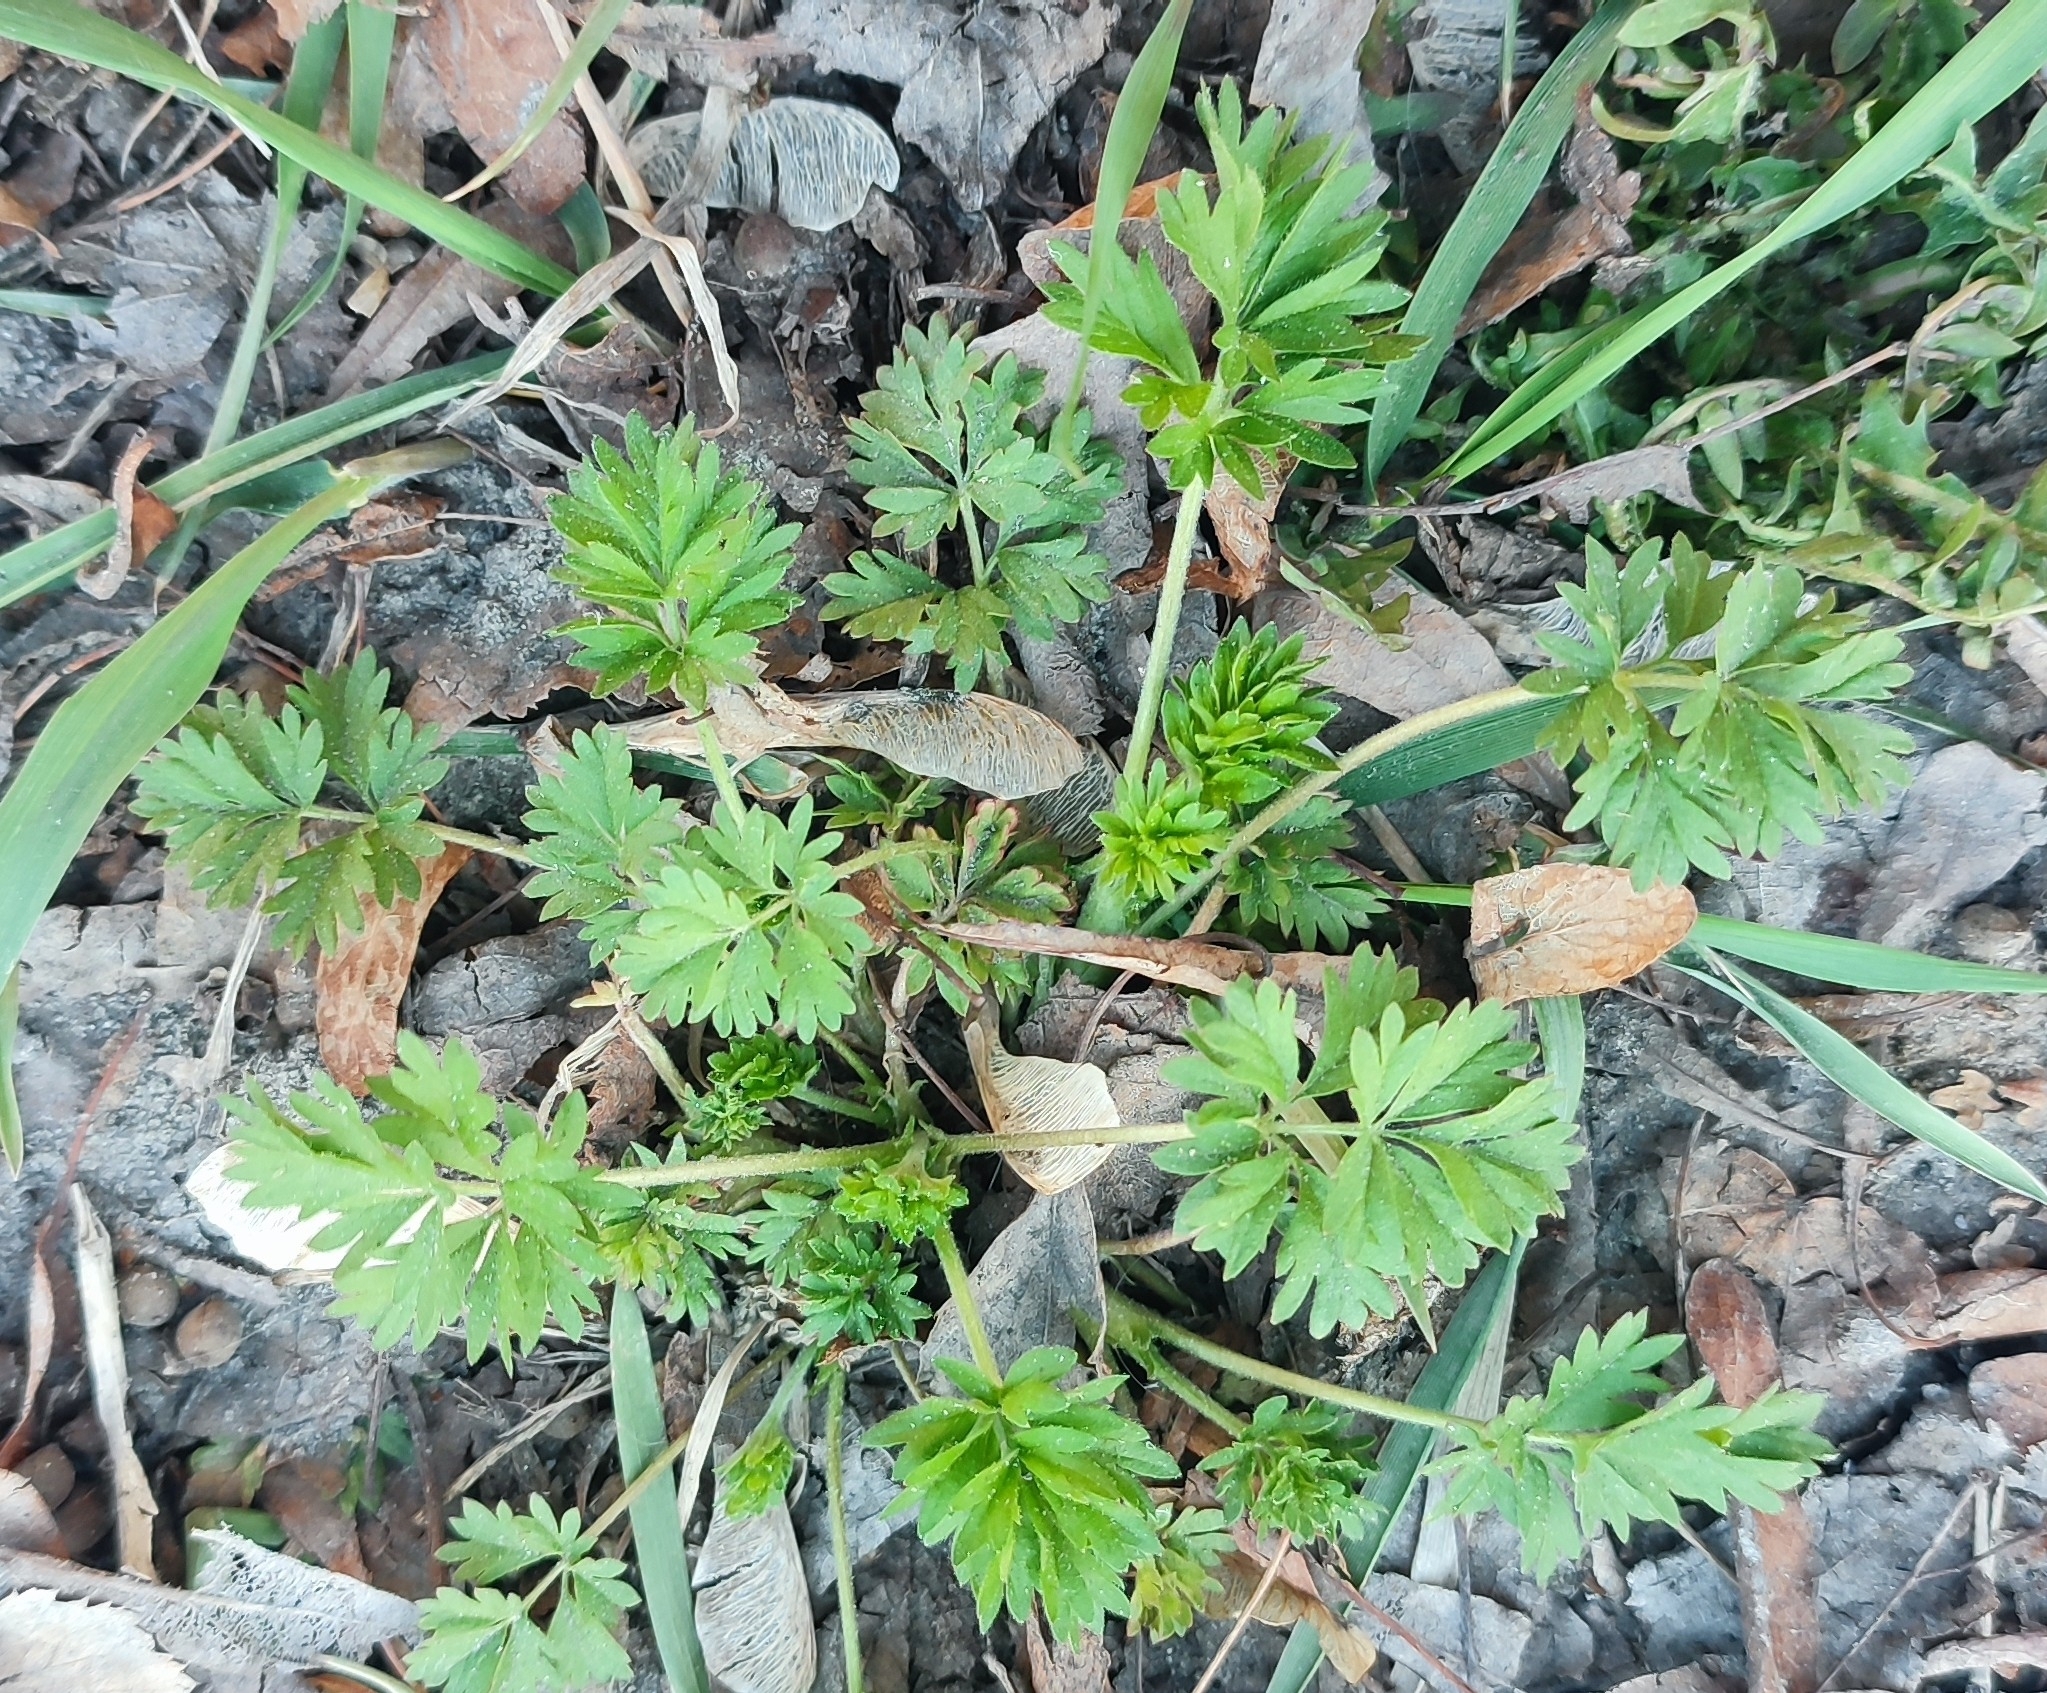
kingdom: Plantae
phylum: Tracheophyta
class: Magnoliopsida
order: Rosales
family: Rosaceae
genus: Potentilla
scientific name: Potentilla tobolensis
